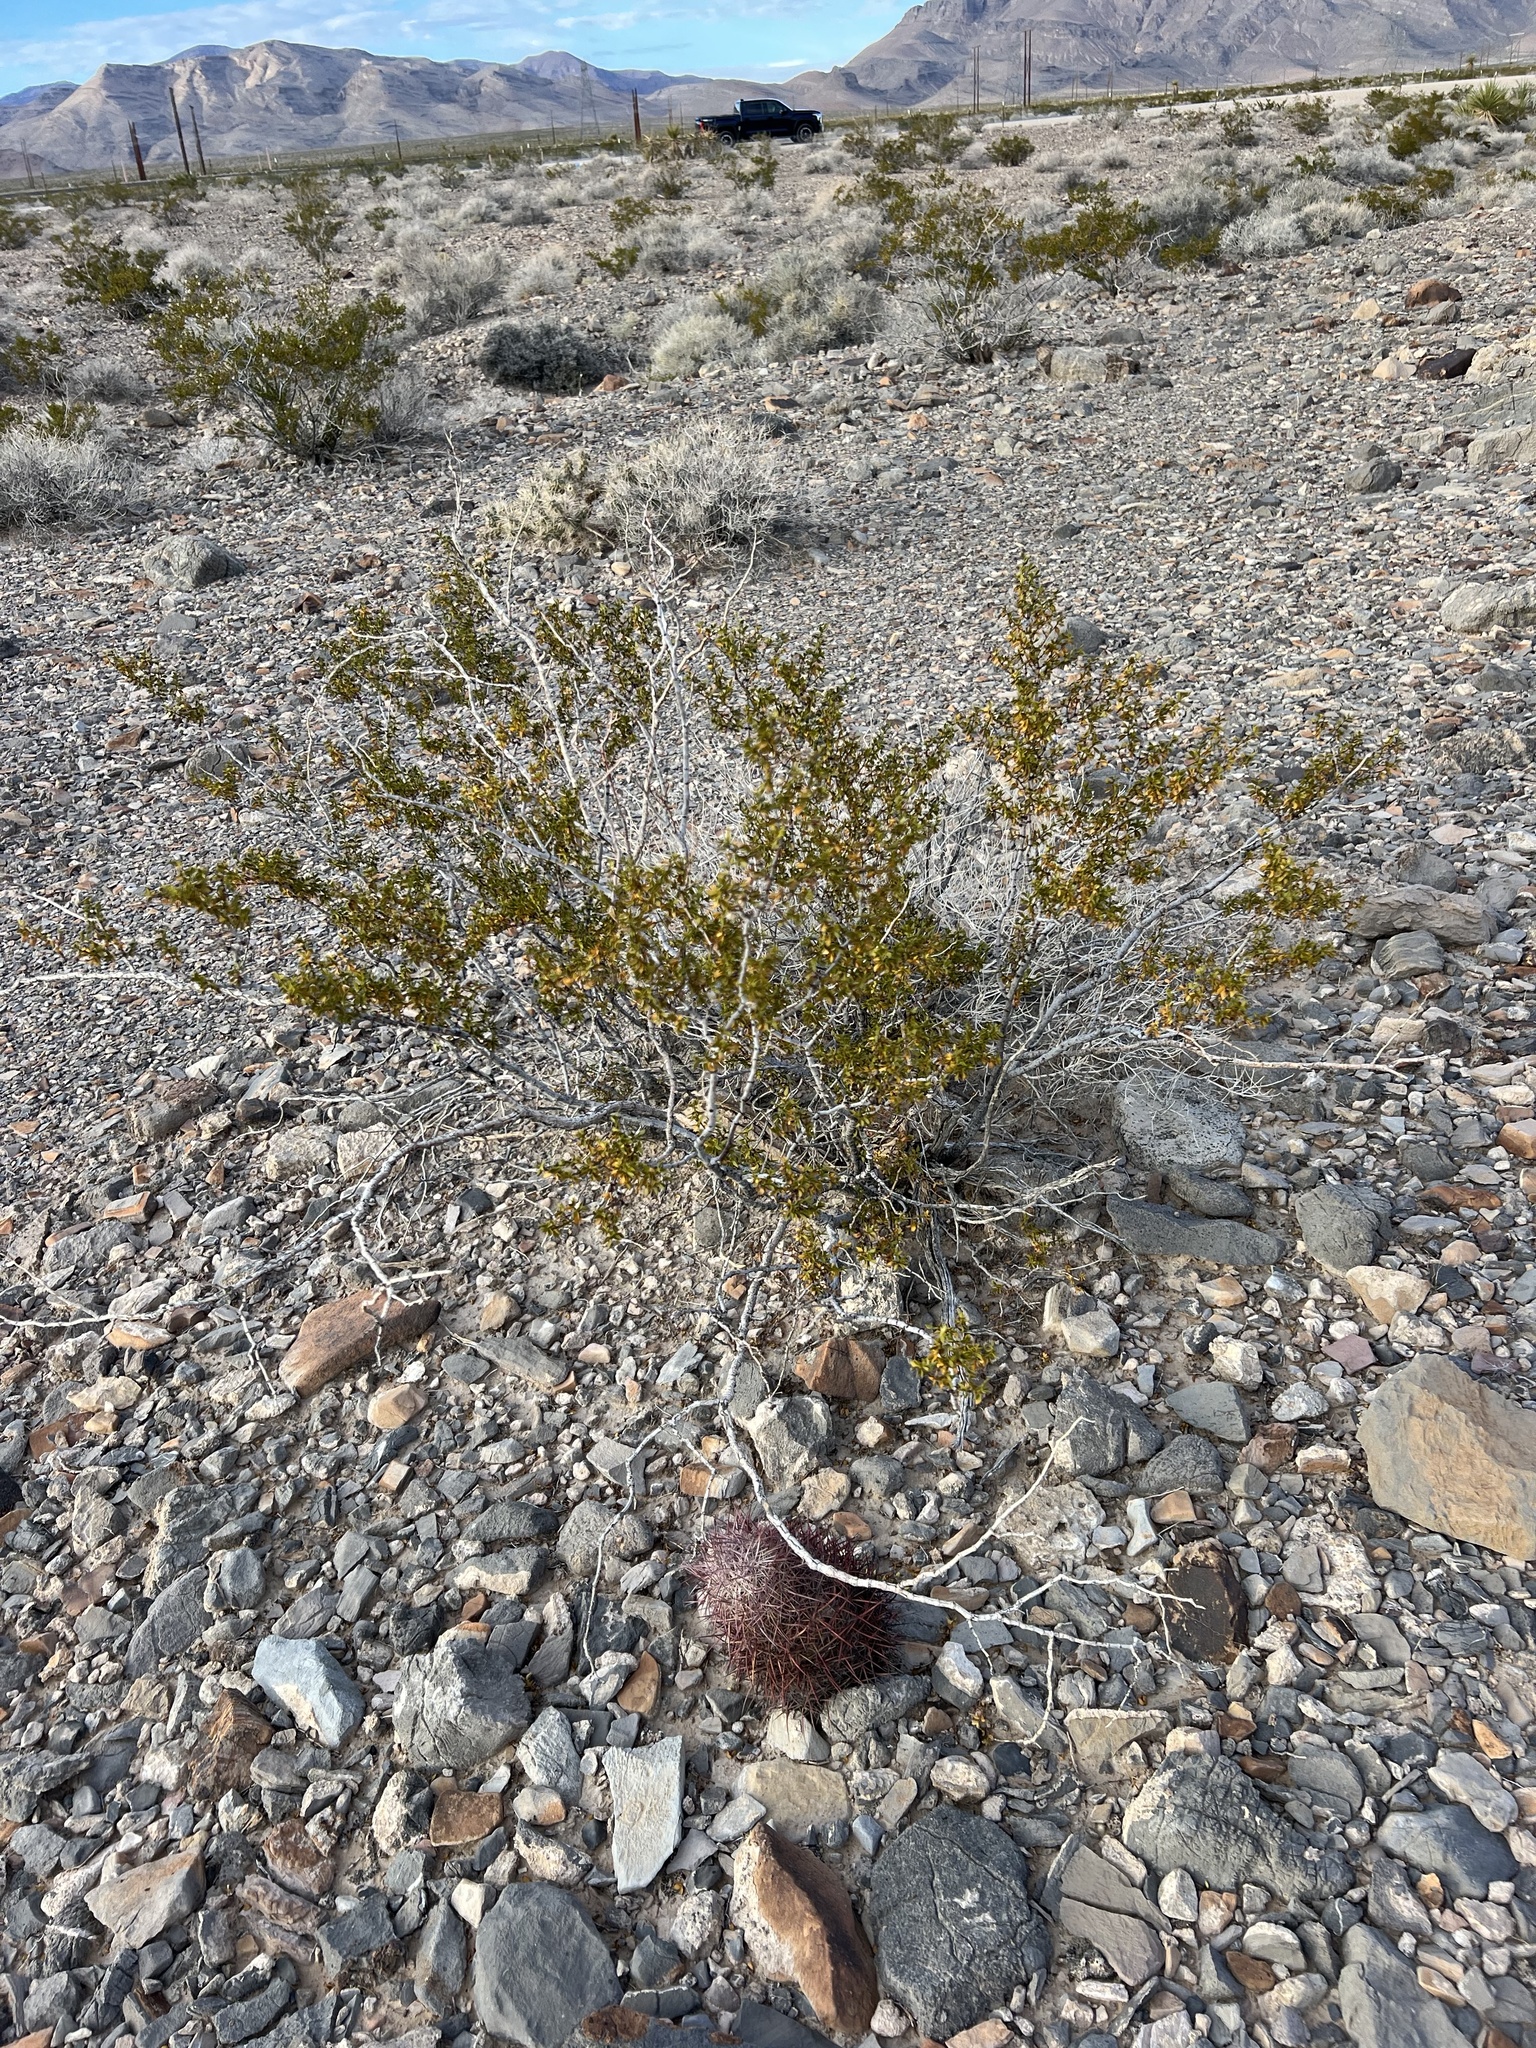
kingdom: Plantae
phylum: Tracheophyta
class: Magnoliopsida
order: Zygophyllales
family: Zygophyllaceae
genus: Larrea
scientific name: Larrea tridentata
